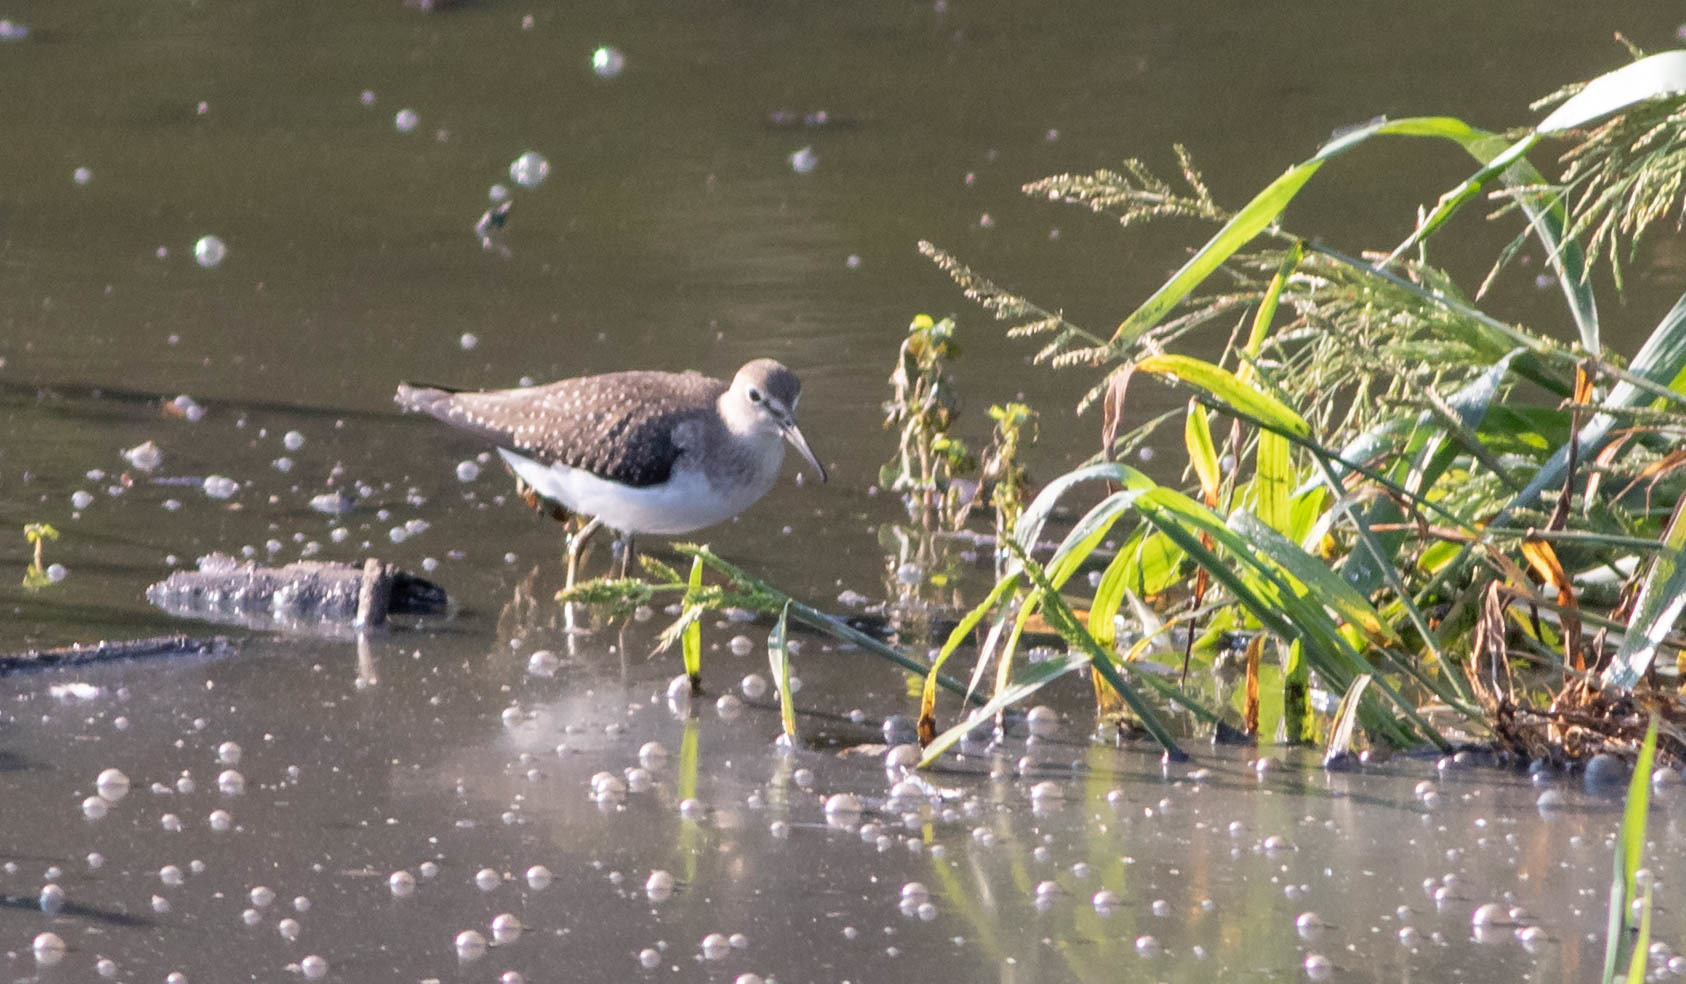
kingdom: Animalia
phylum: Chordata
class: Aves
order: Charadriiformes
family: Scolopacidae
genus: Tringa
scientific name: Tringa solitaria
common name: Solitary sandpiper
